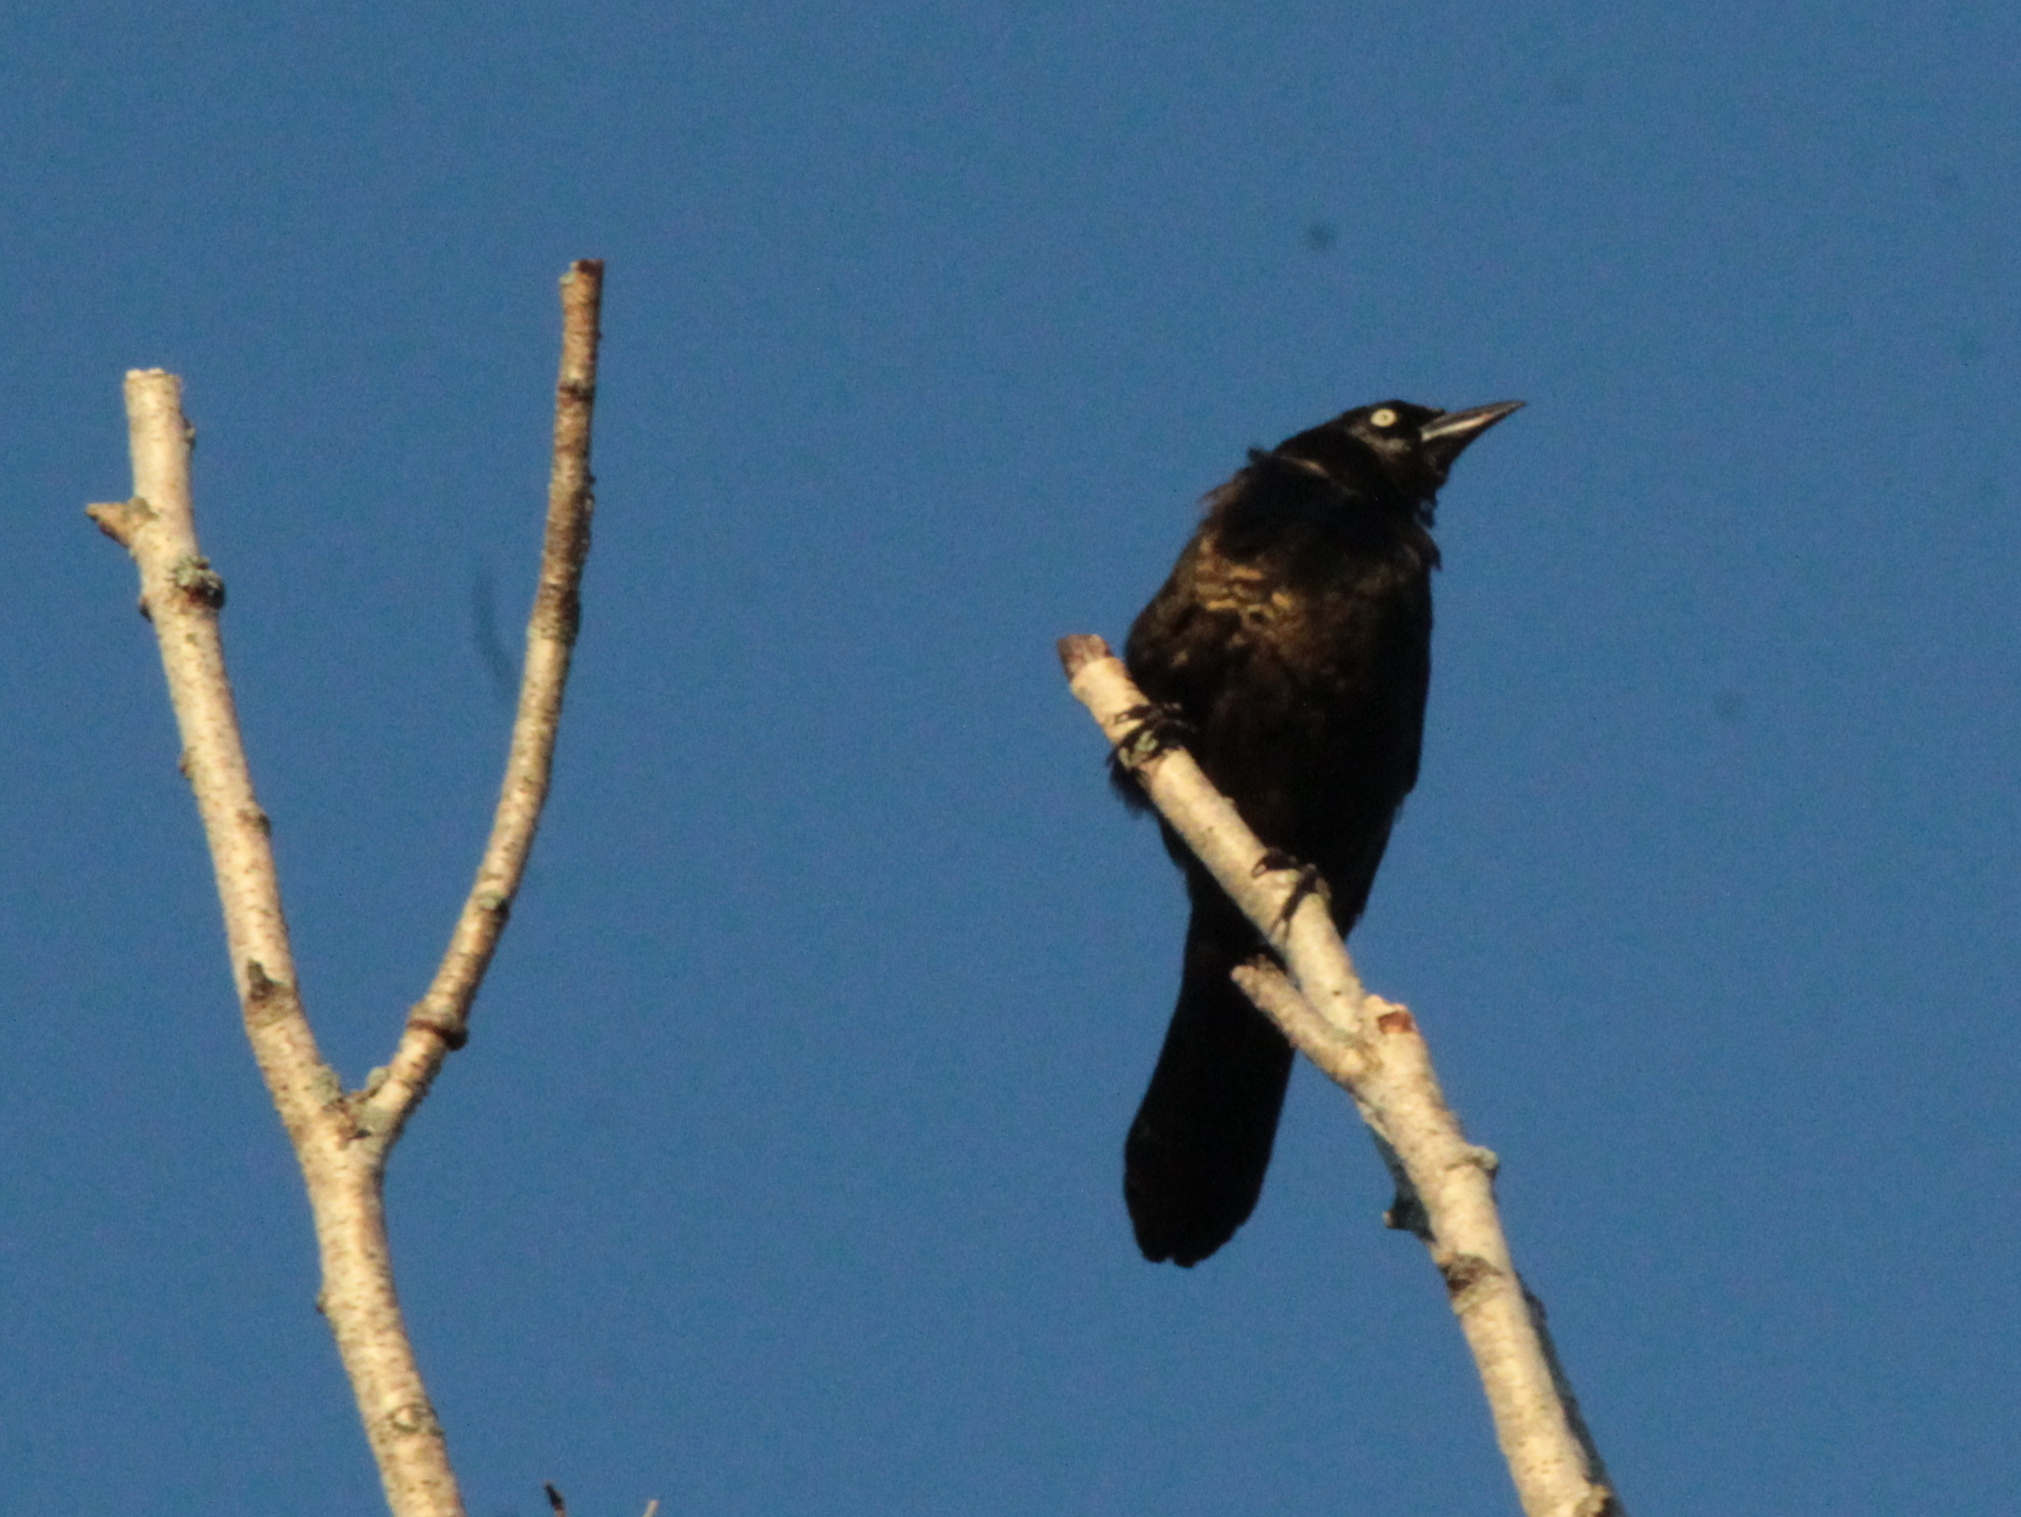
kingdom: Animalia
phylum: Chordata
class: Aves
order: Passeriformes
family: Icteridae
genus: Quiscalus
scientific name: Quiscalus quiscula
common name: Common grackle
